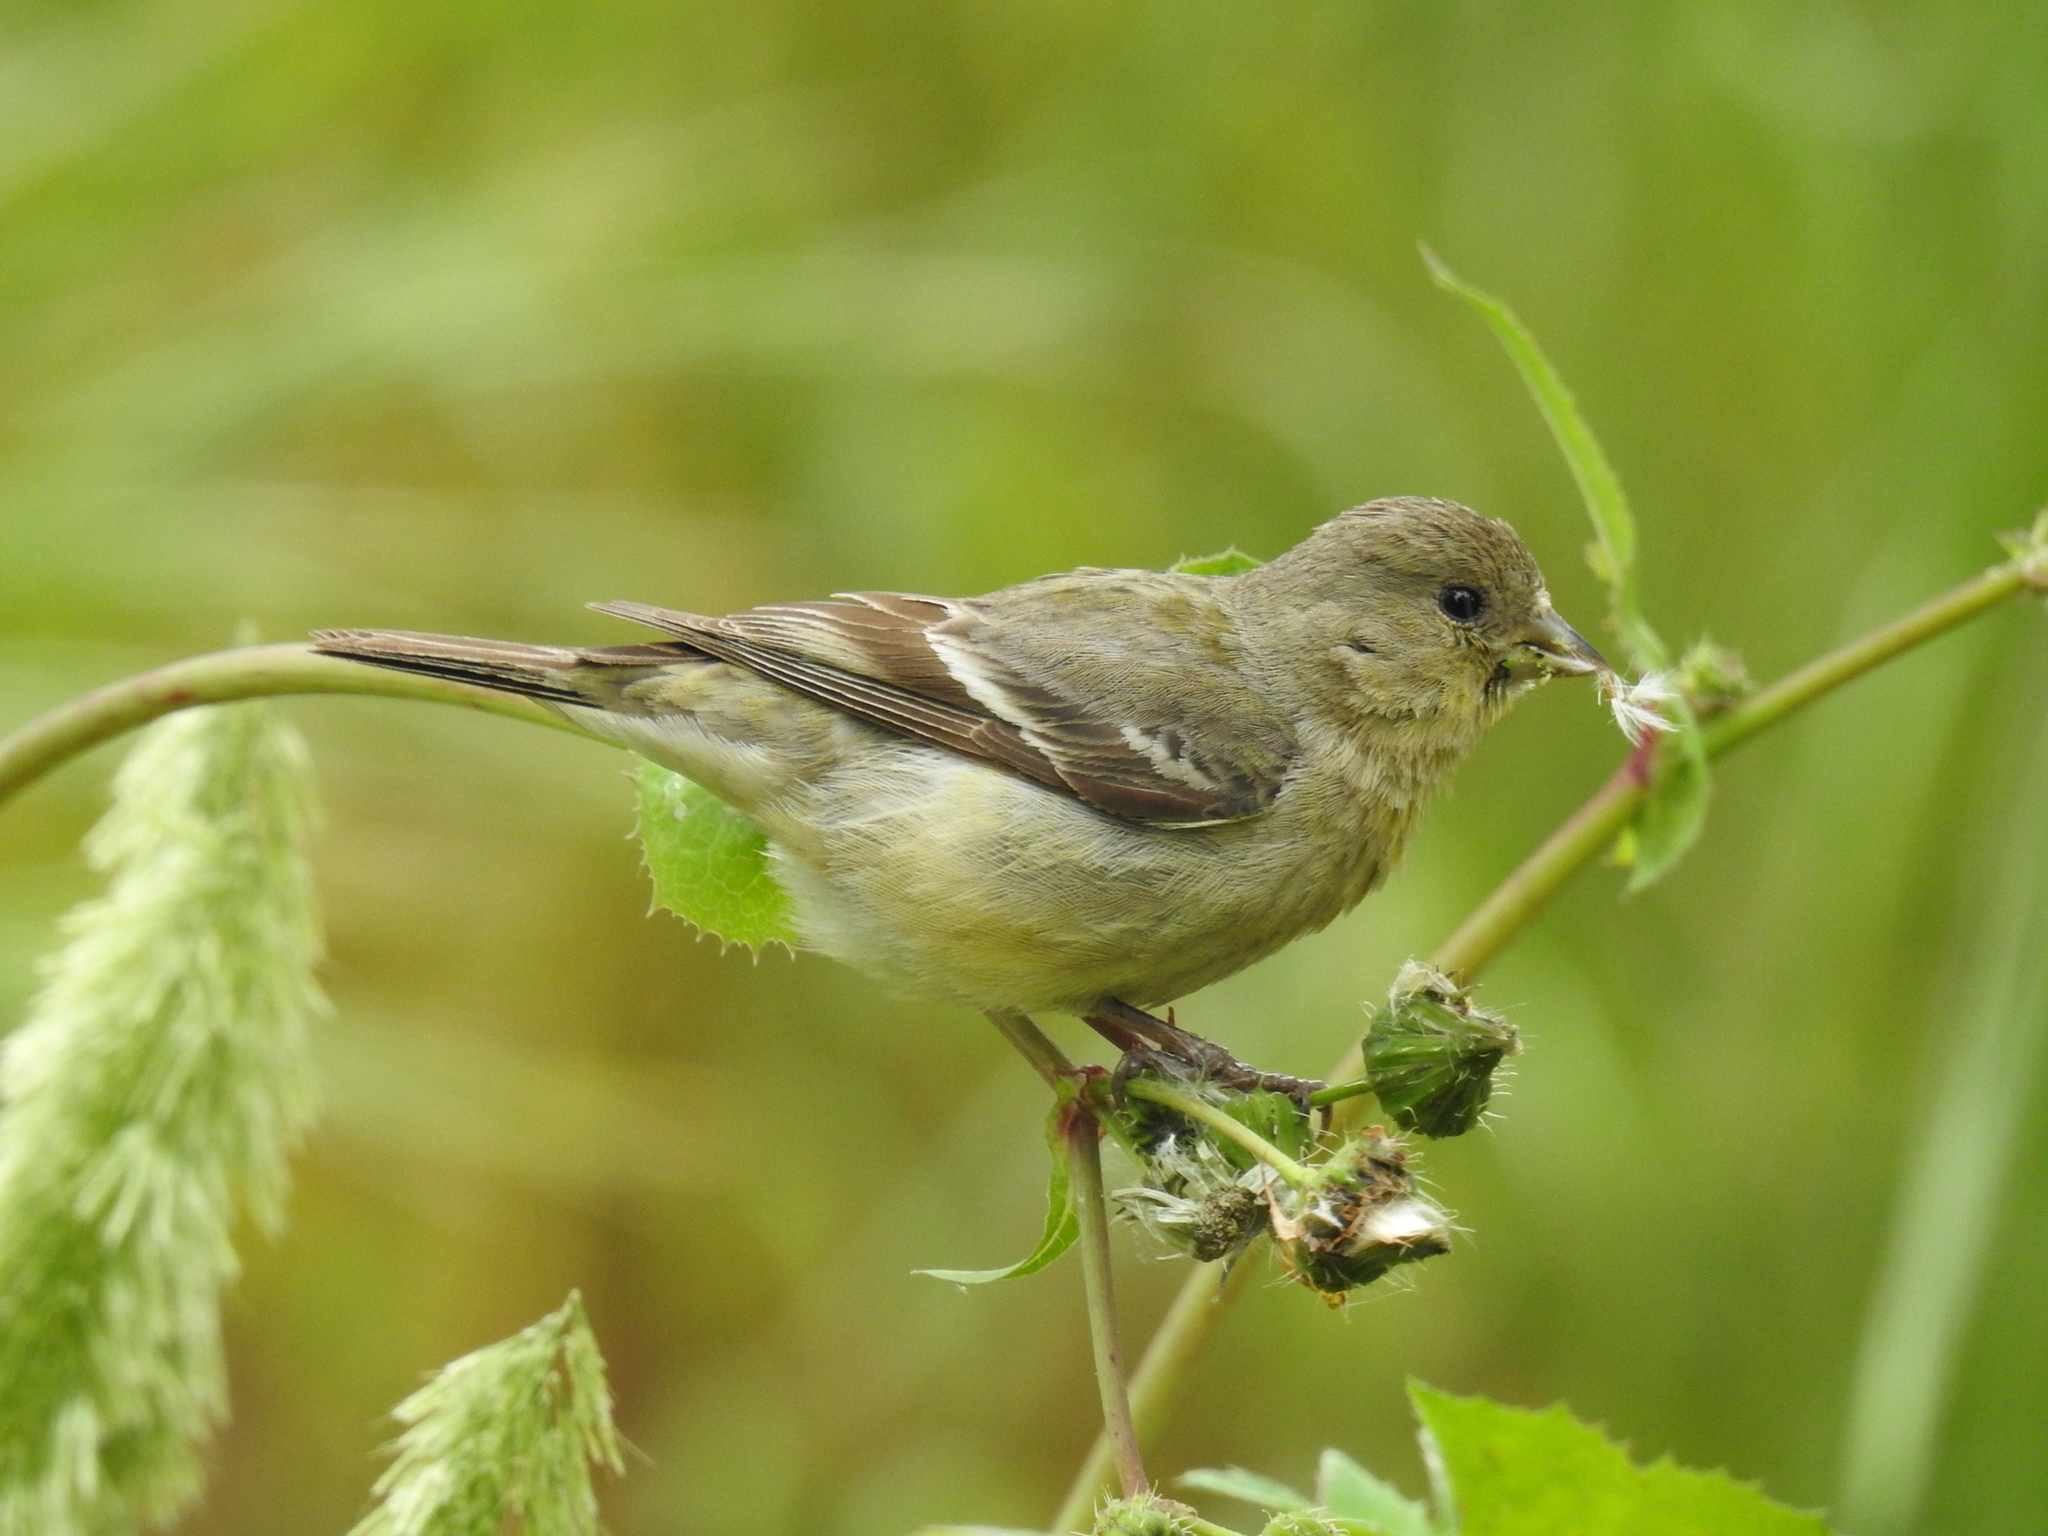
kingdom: Animalia
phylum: Chordata
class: Aves
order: Passeriformes
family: Fringillidae
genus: Spinus
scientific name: Spinus psaltria
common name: Lesser goldfinch
